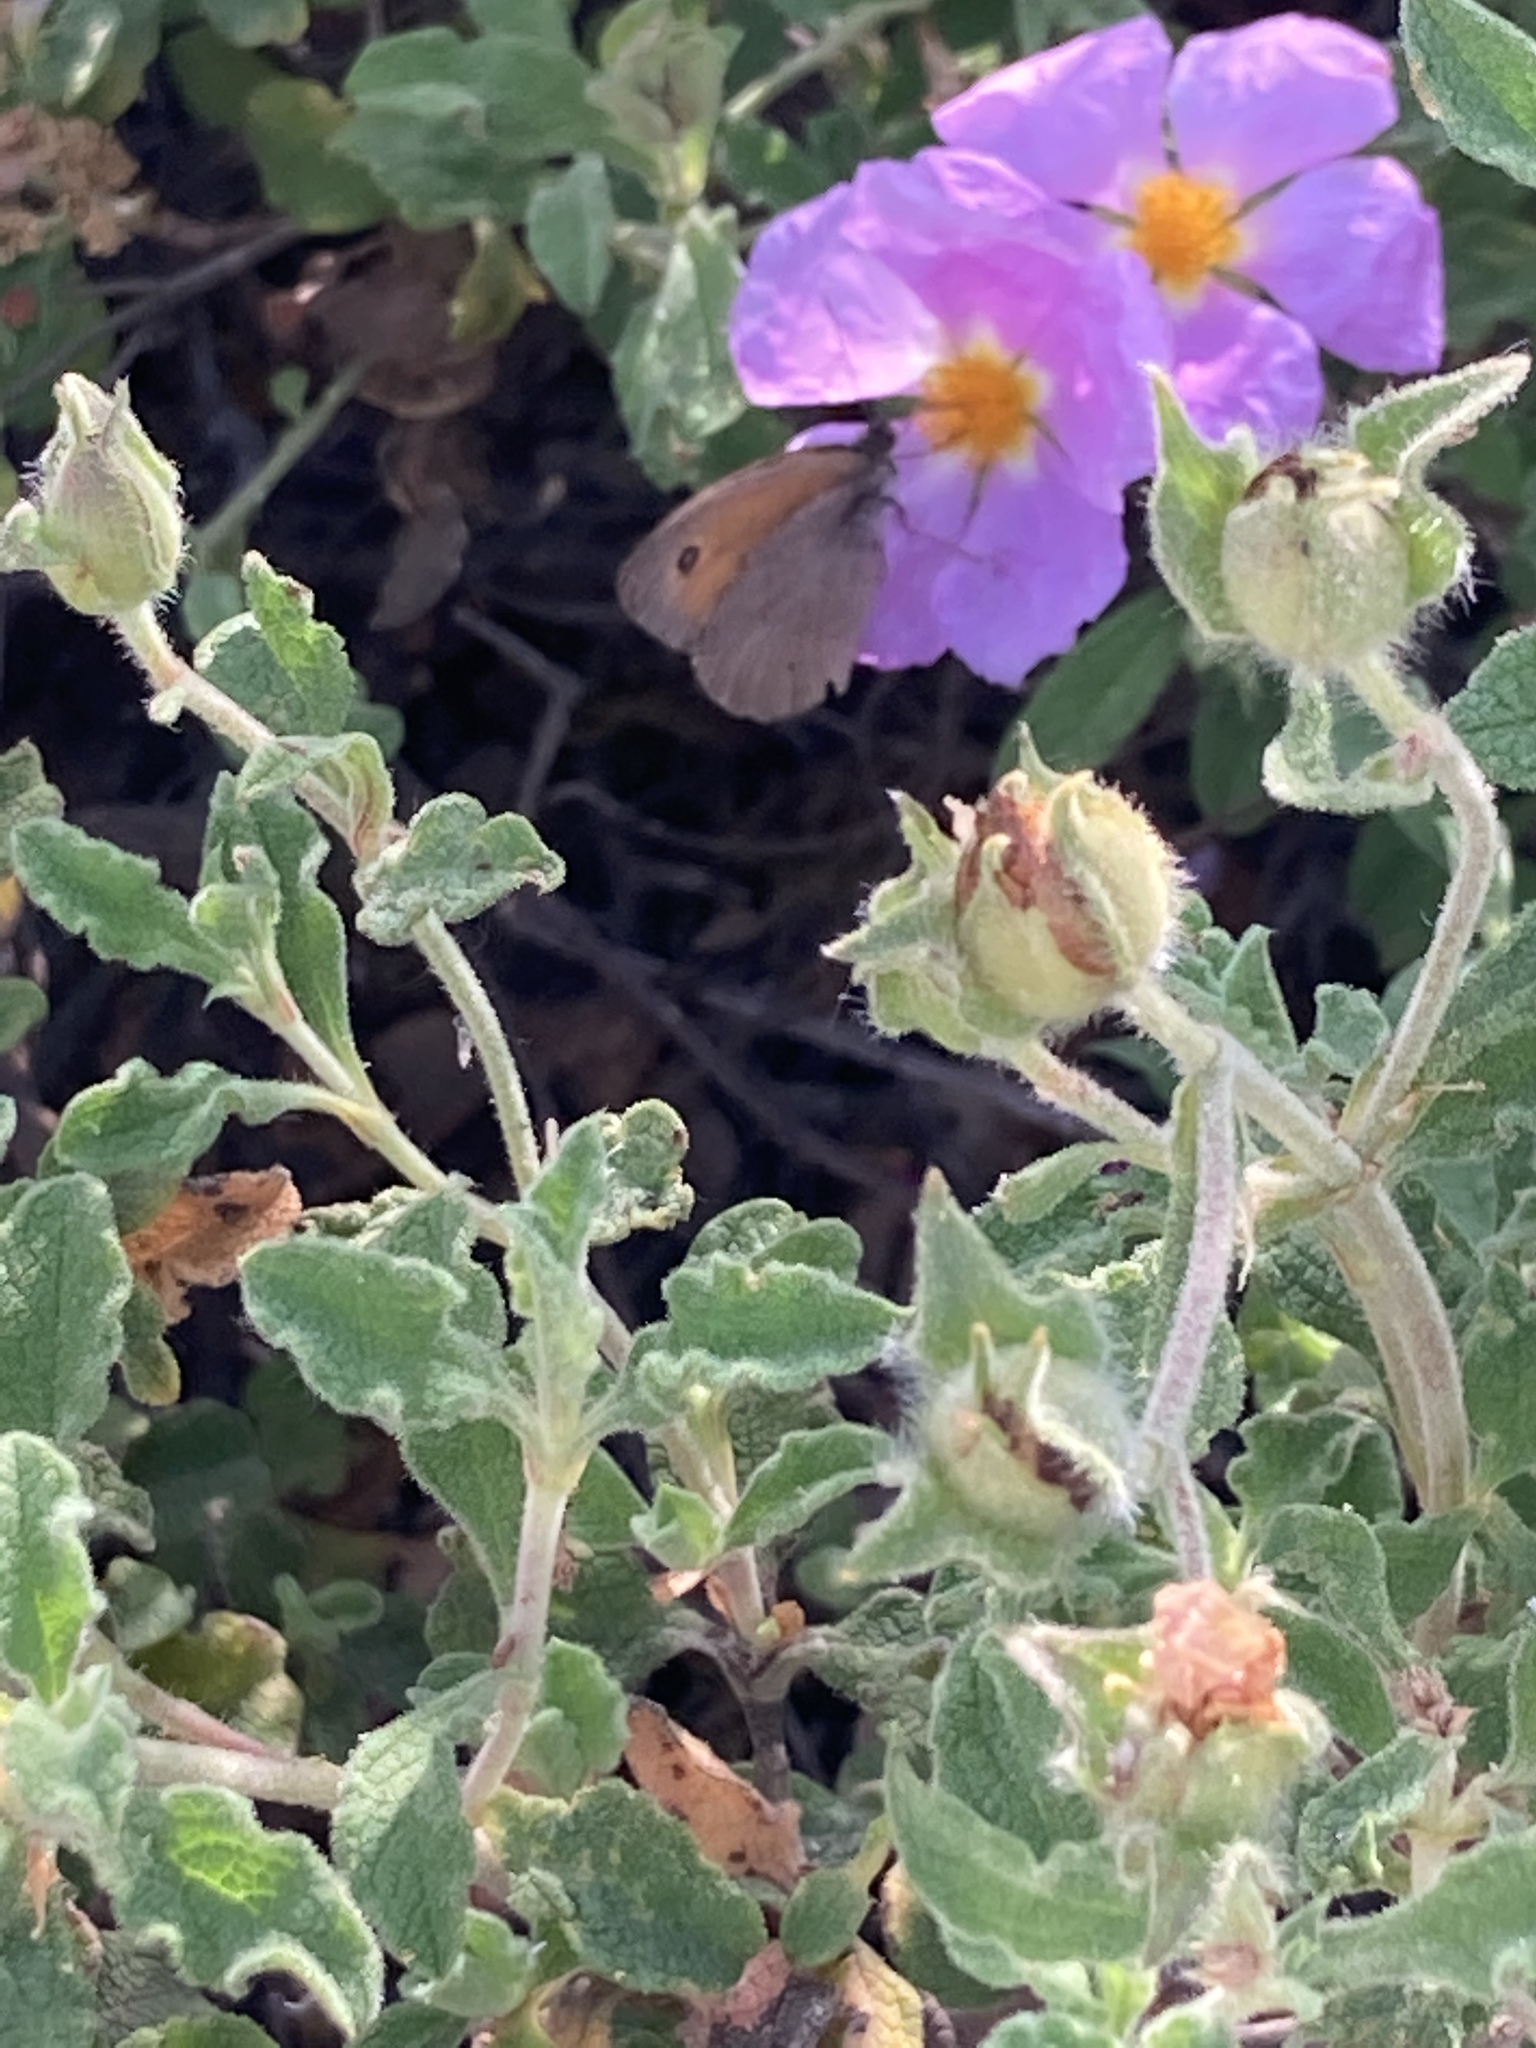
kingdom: Animalia
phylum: Arthropoda
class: Insecta
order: Lepidoptera
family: Nymphalidae
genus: Maniola
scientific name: Maniola telmessia
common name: Persian meadow brown
